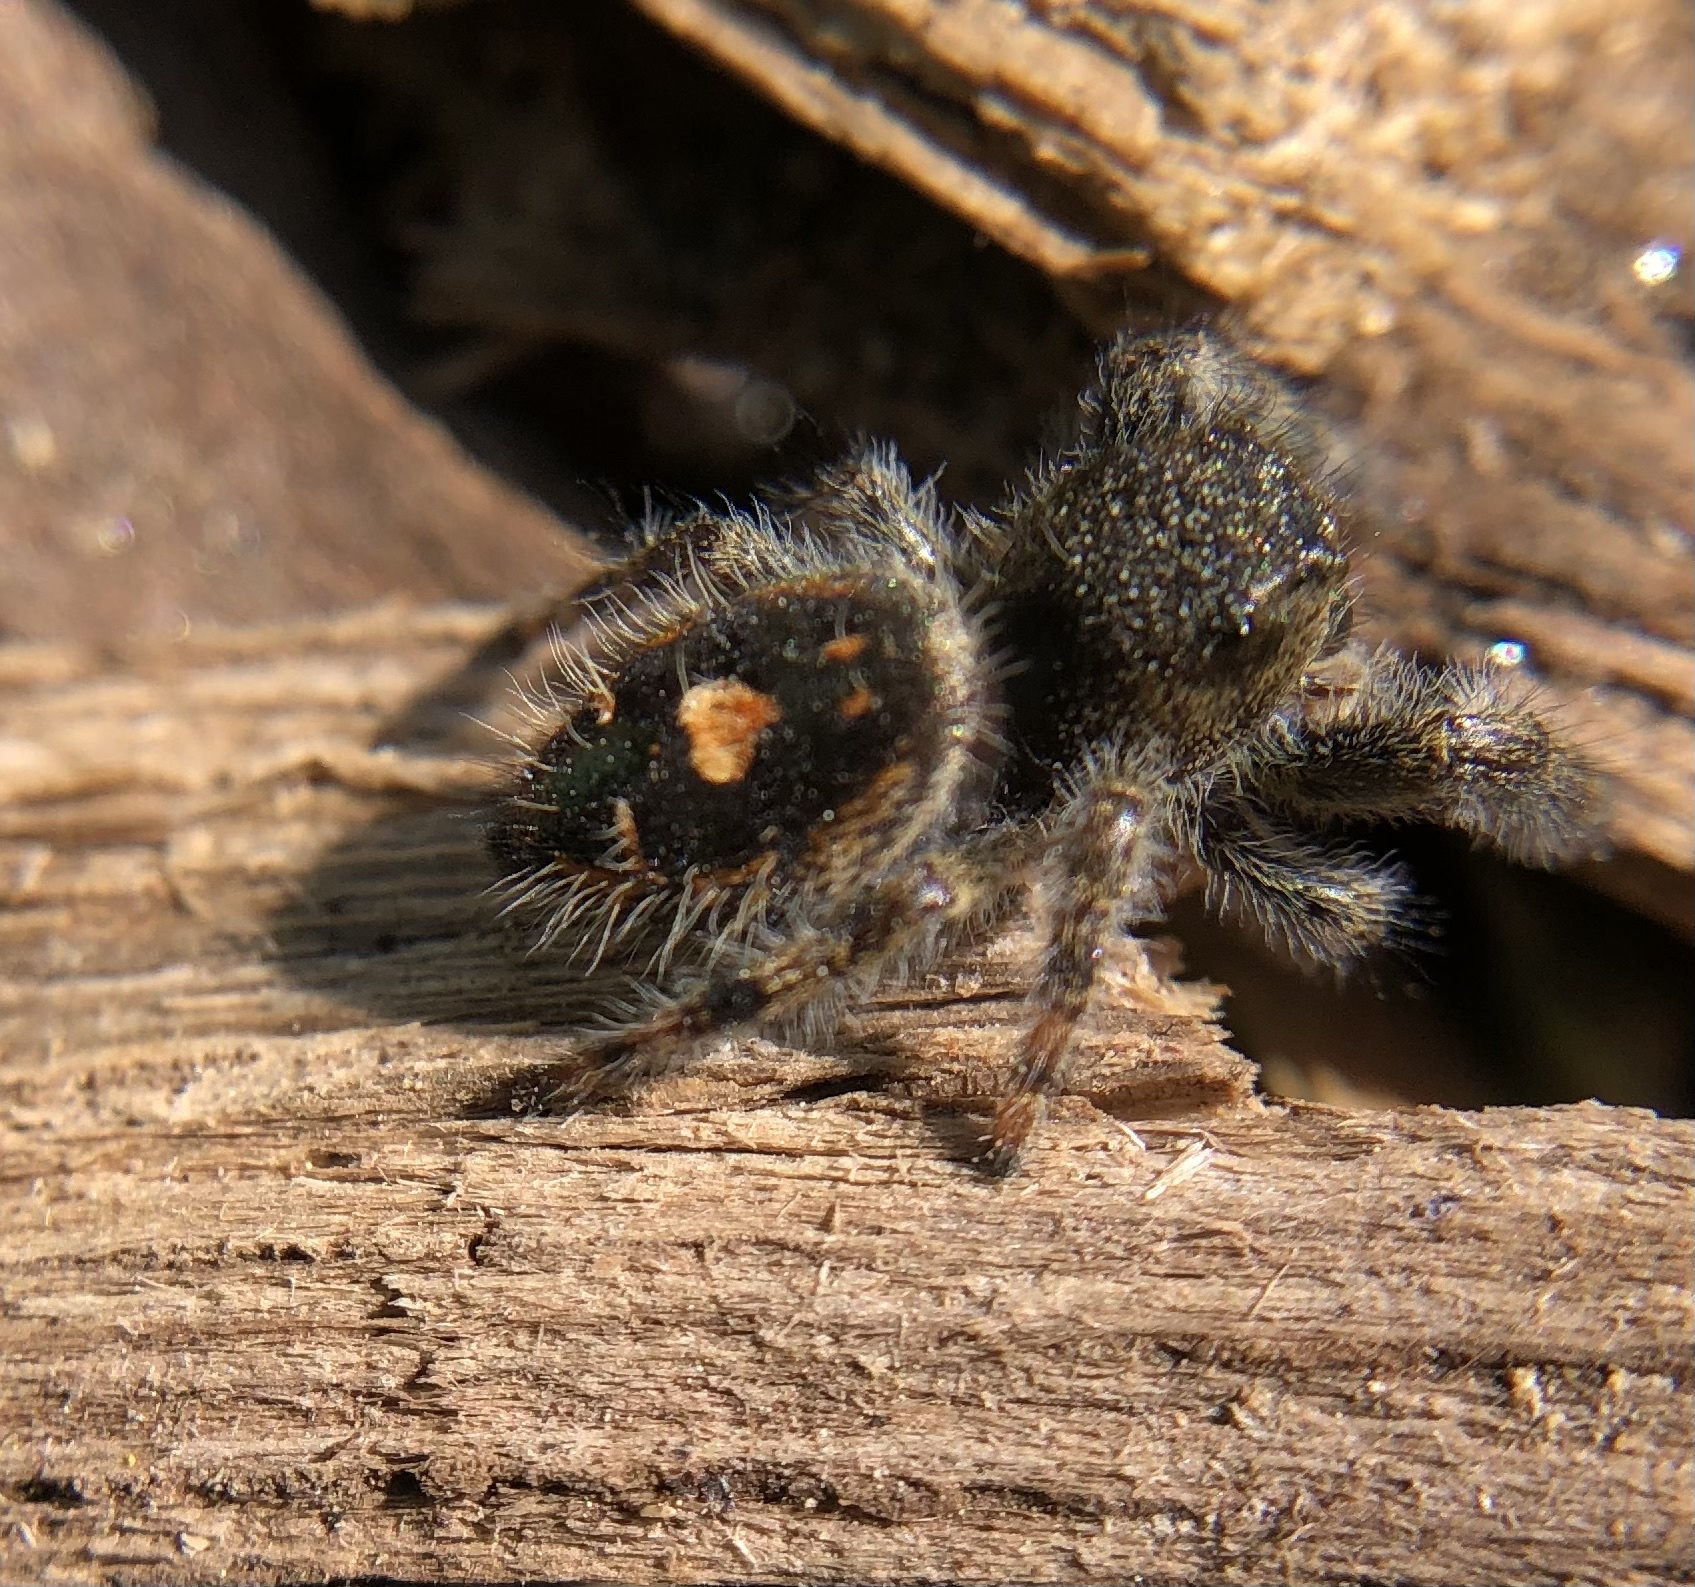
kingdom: Animalia
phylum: Arthropoda
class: Arachnida
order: Araneae
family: Salticidae
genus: Phidippus
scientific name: Phidippus audax
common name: Bold jumper
